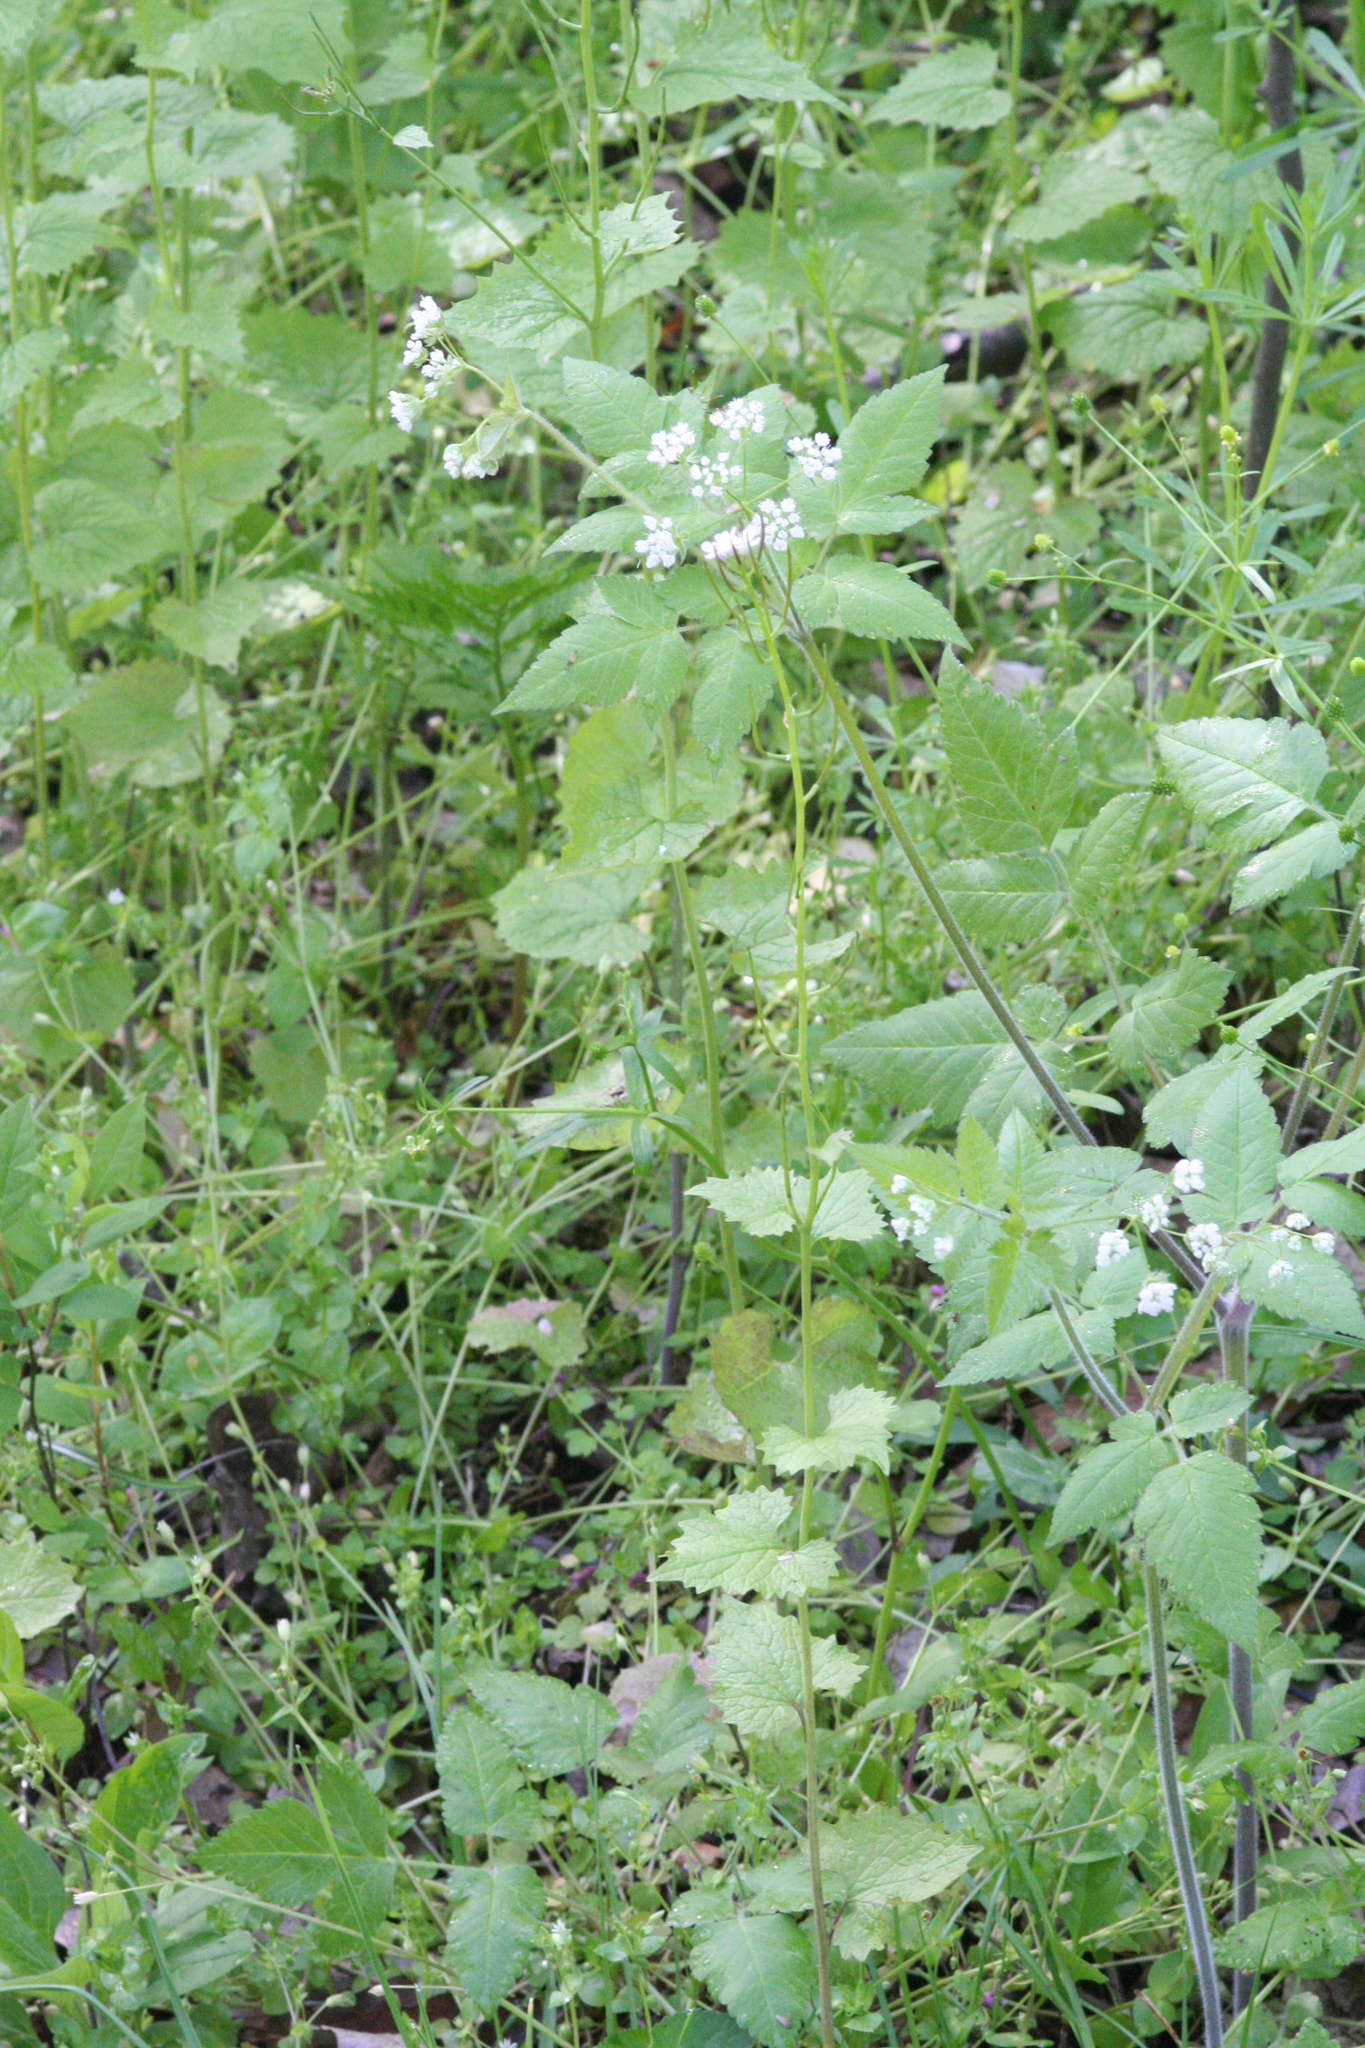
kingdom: Plantae
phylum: Tracheophyta
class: Magnoliopsida
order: Apiales
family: Apiaceae
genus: Osmorhiza
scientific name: Osmorhiza longistylis
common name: Smooth sweet cicely
